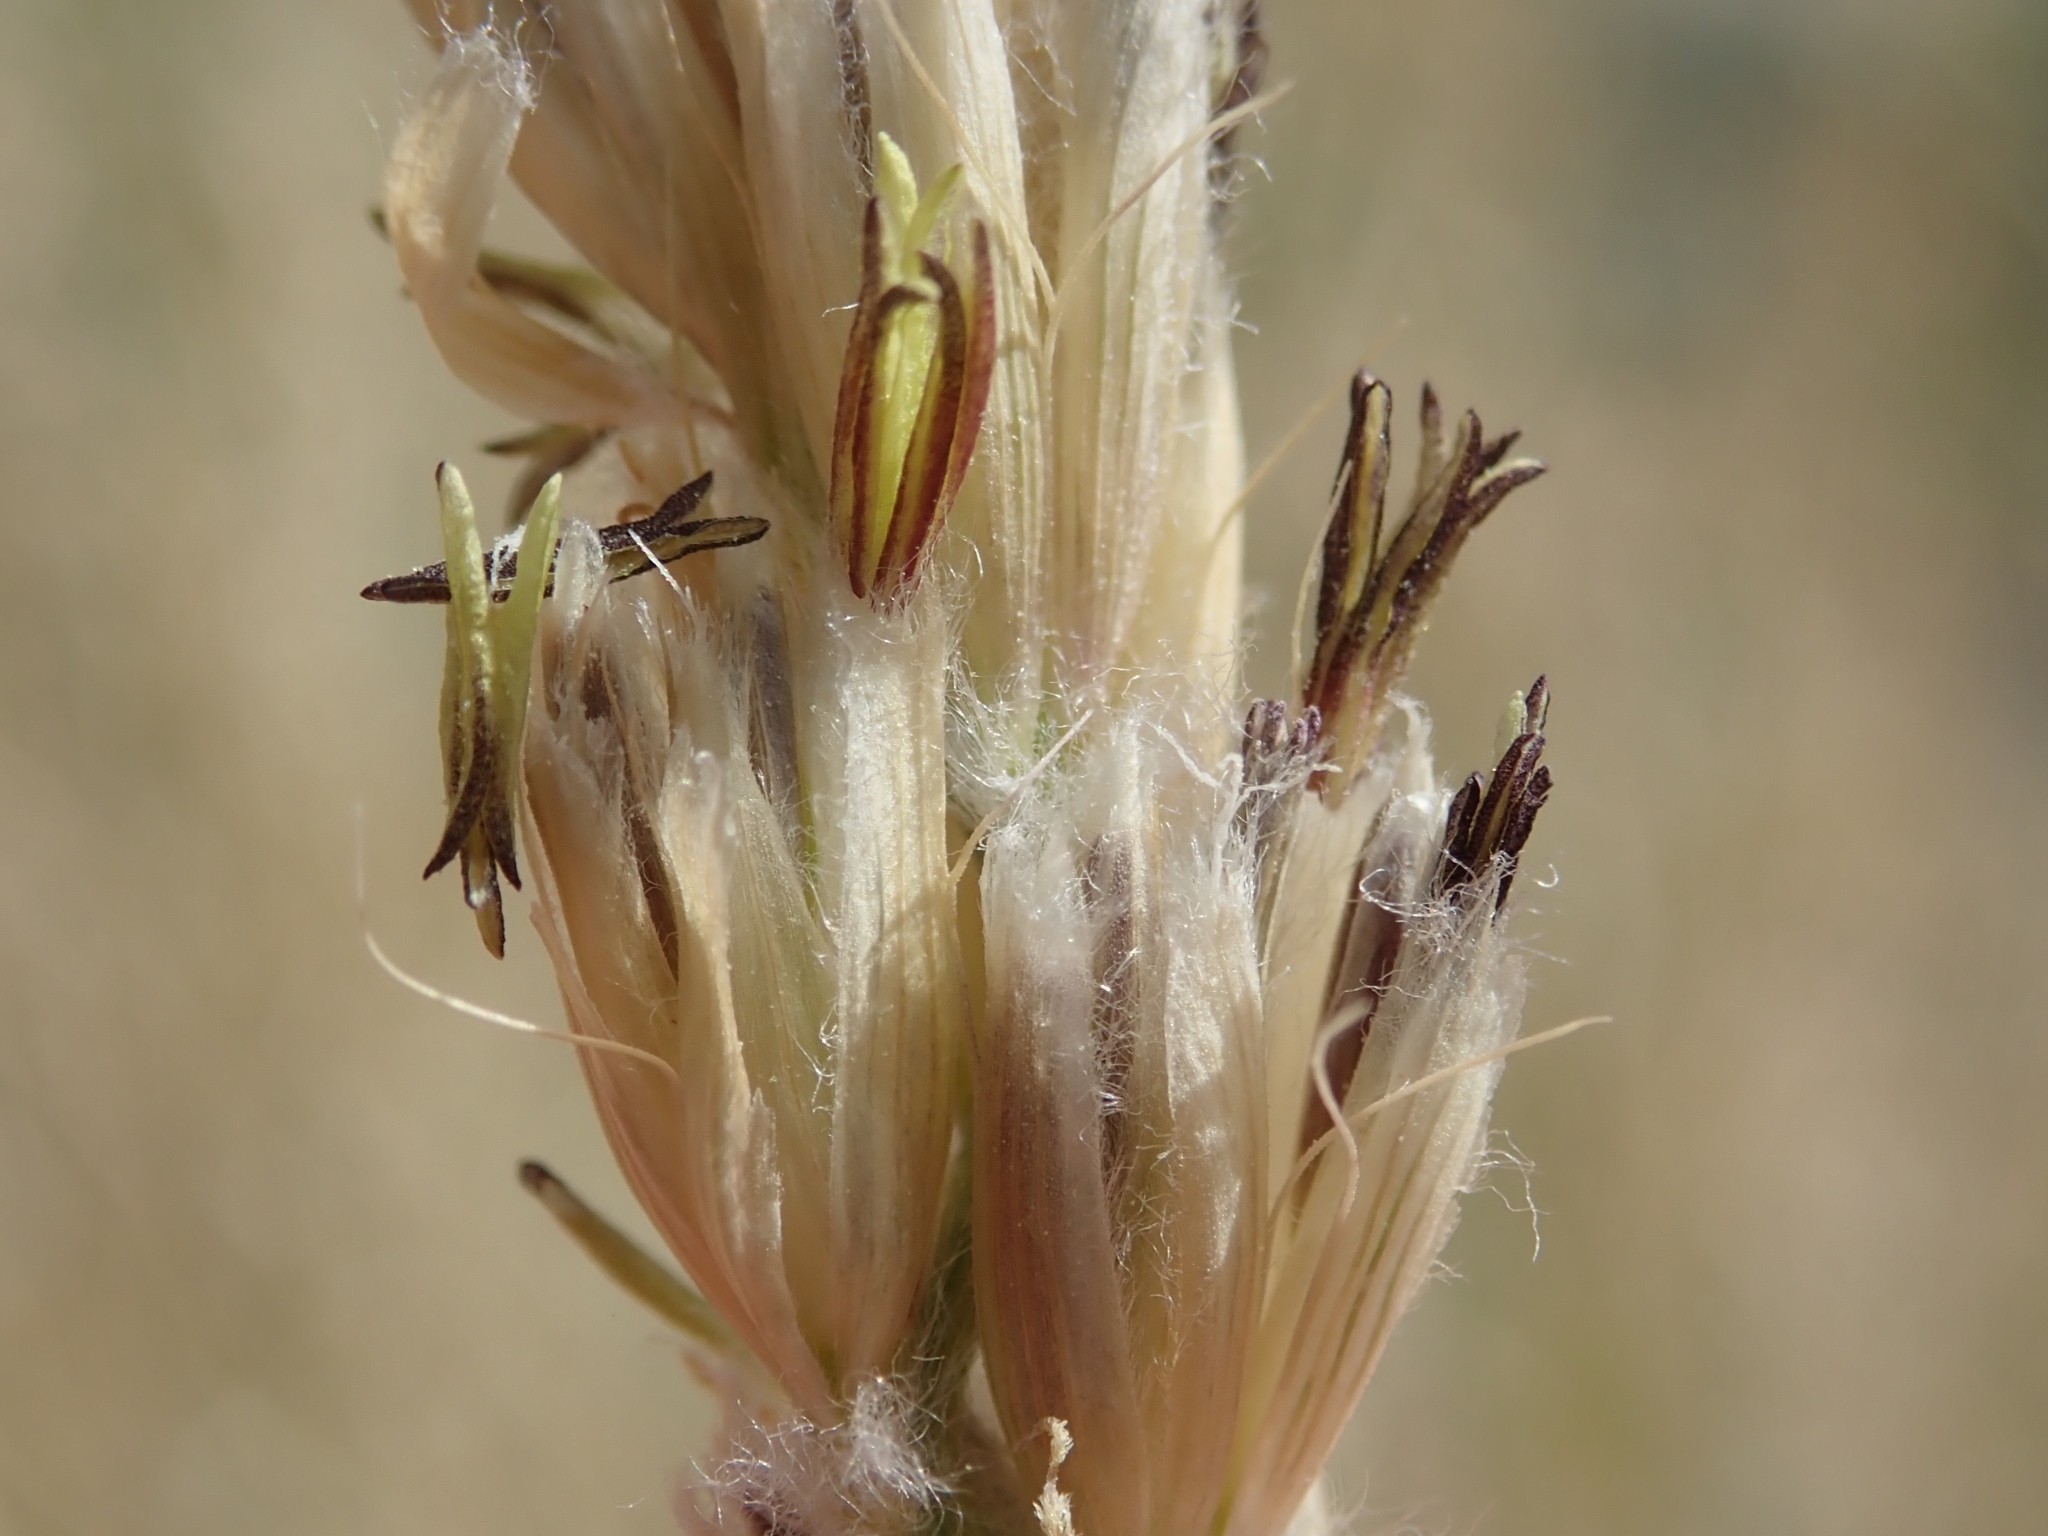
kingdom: Plantae
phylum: Tracheophyta
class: Liliopsida
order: Poales
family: Poaceae
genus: Hilaria
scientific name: Hilaria rigida
